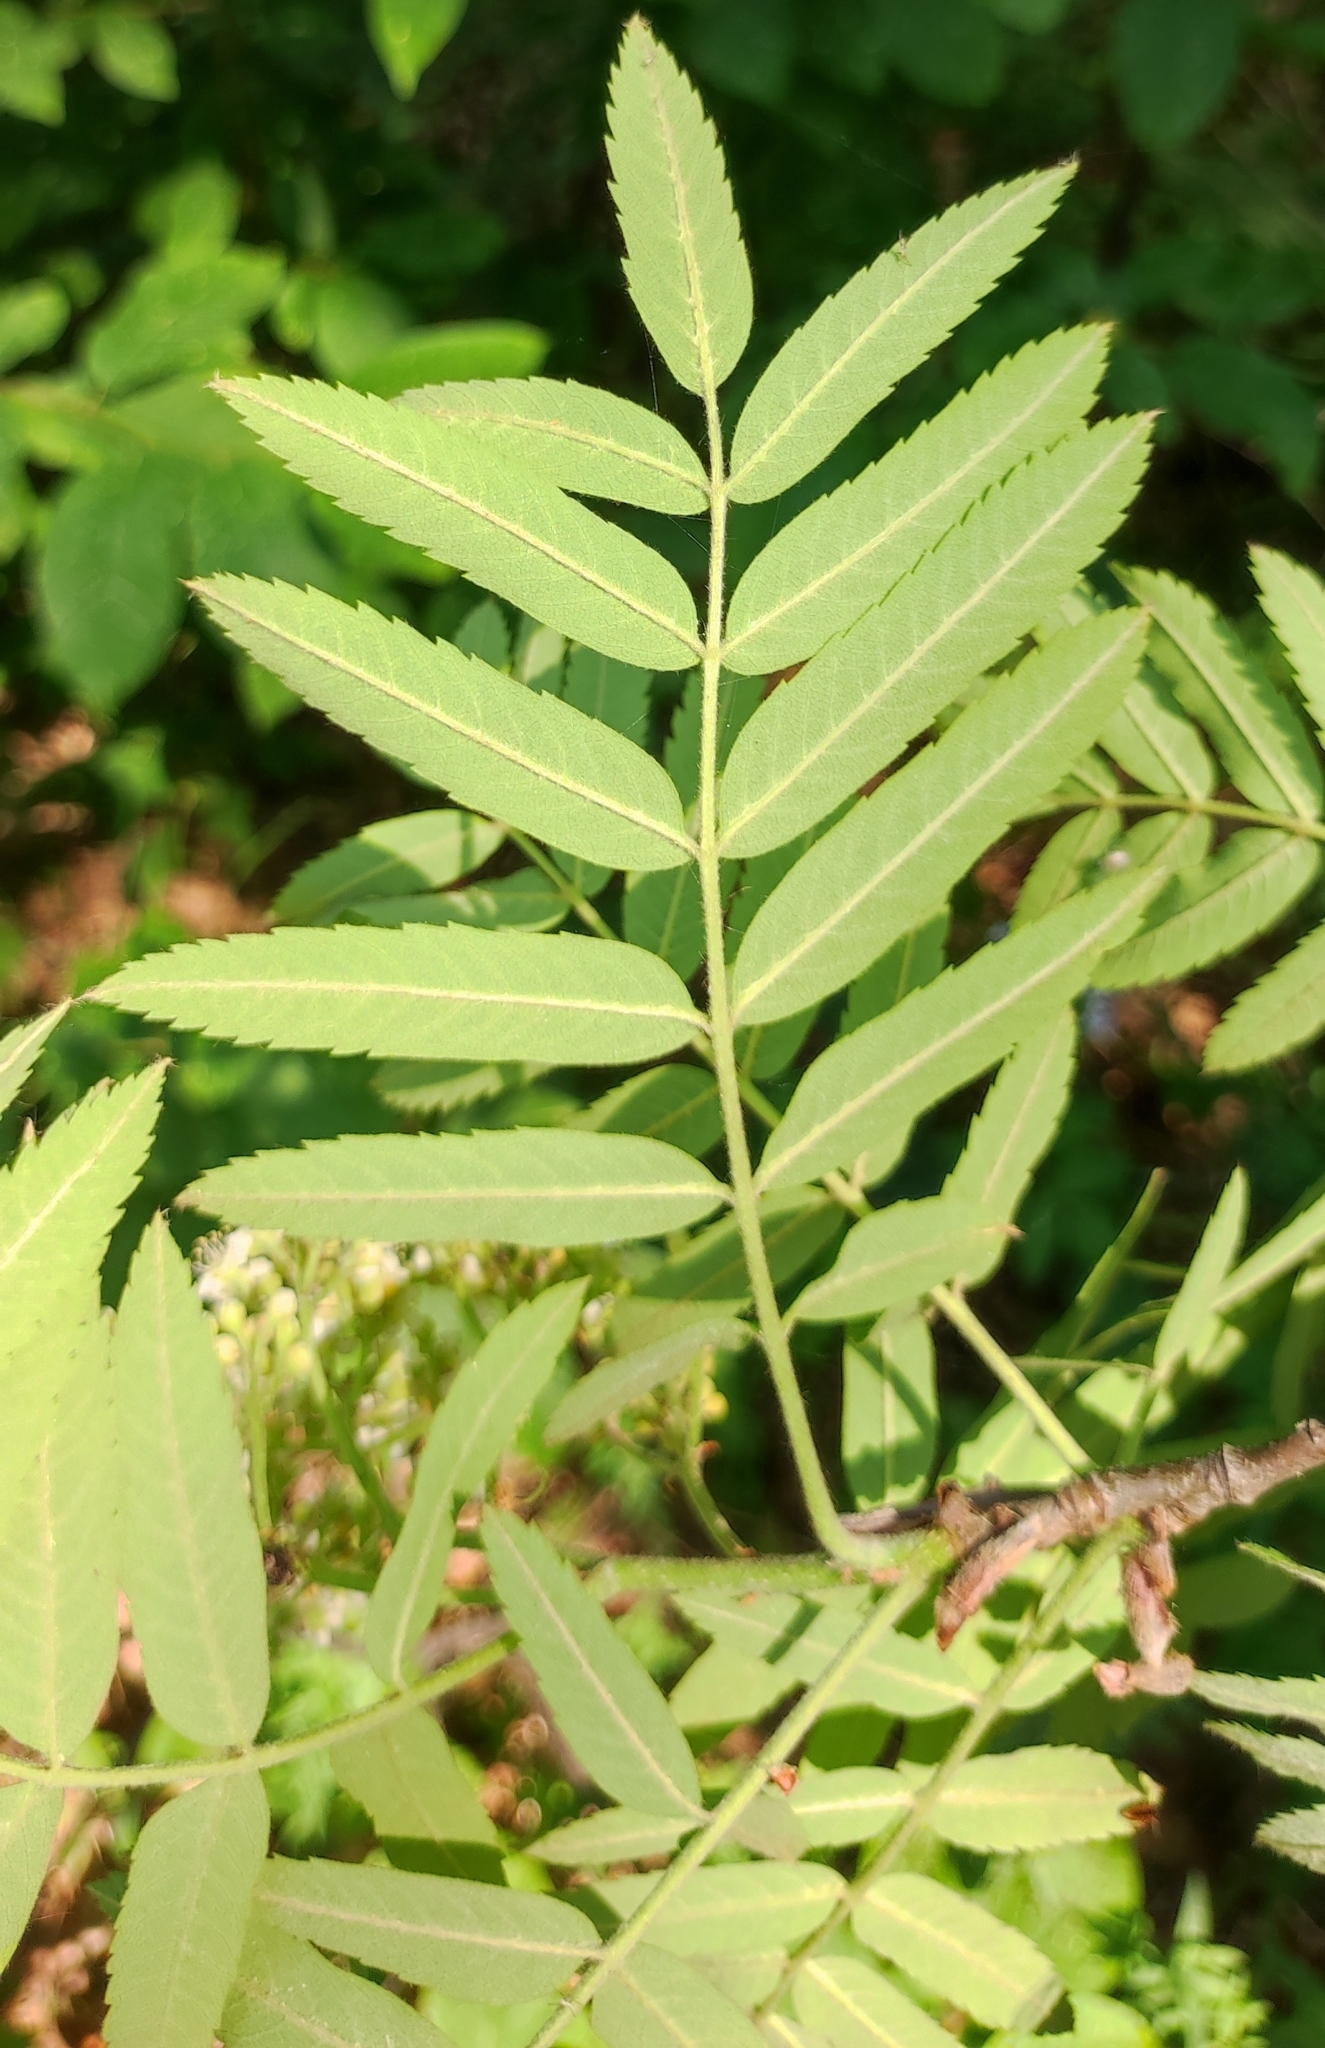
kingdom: Plantae
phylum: Tracheophyta
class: Magnoliopsida
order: Rosales
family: Rosaceae
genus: Sorbus
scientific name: Sorbus aucuparia
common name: Rowan
